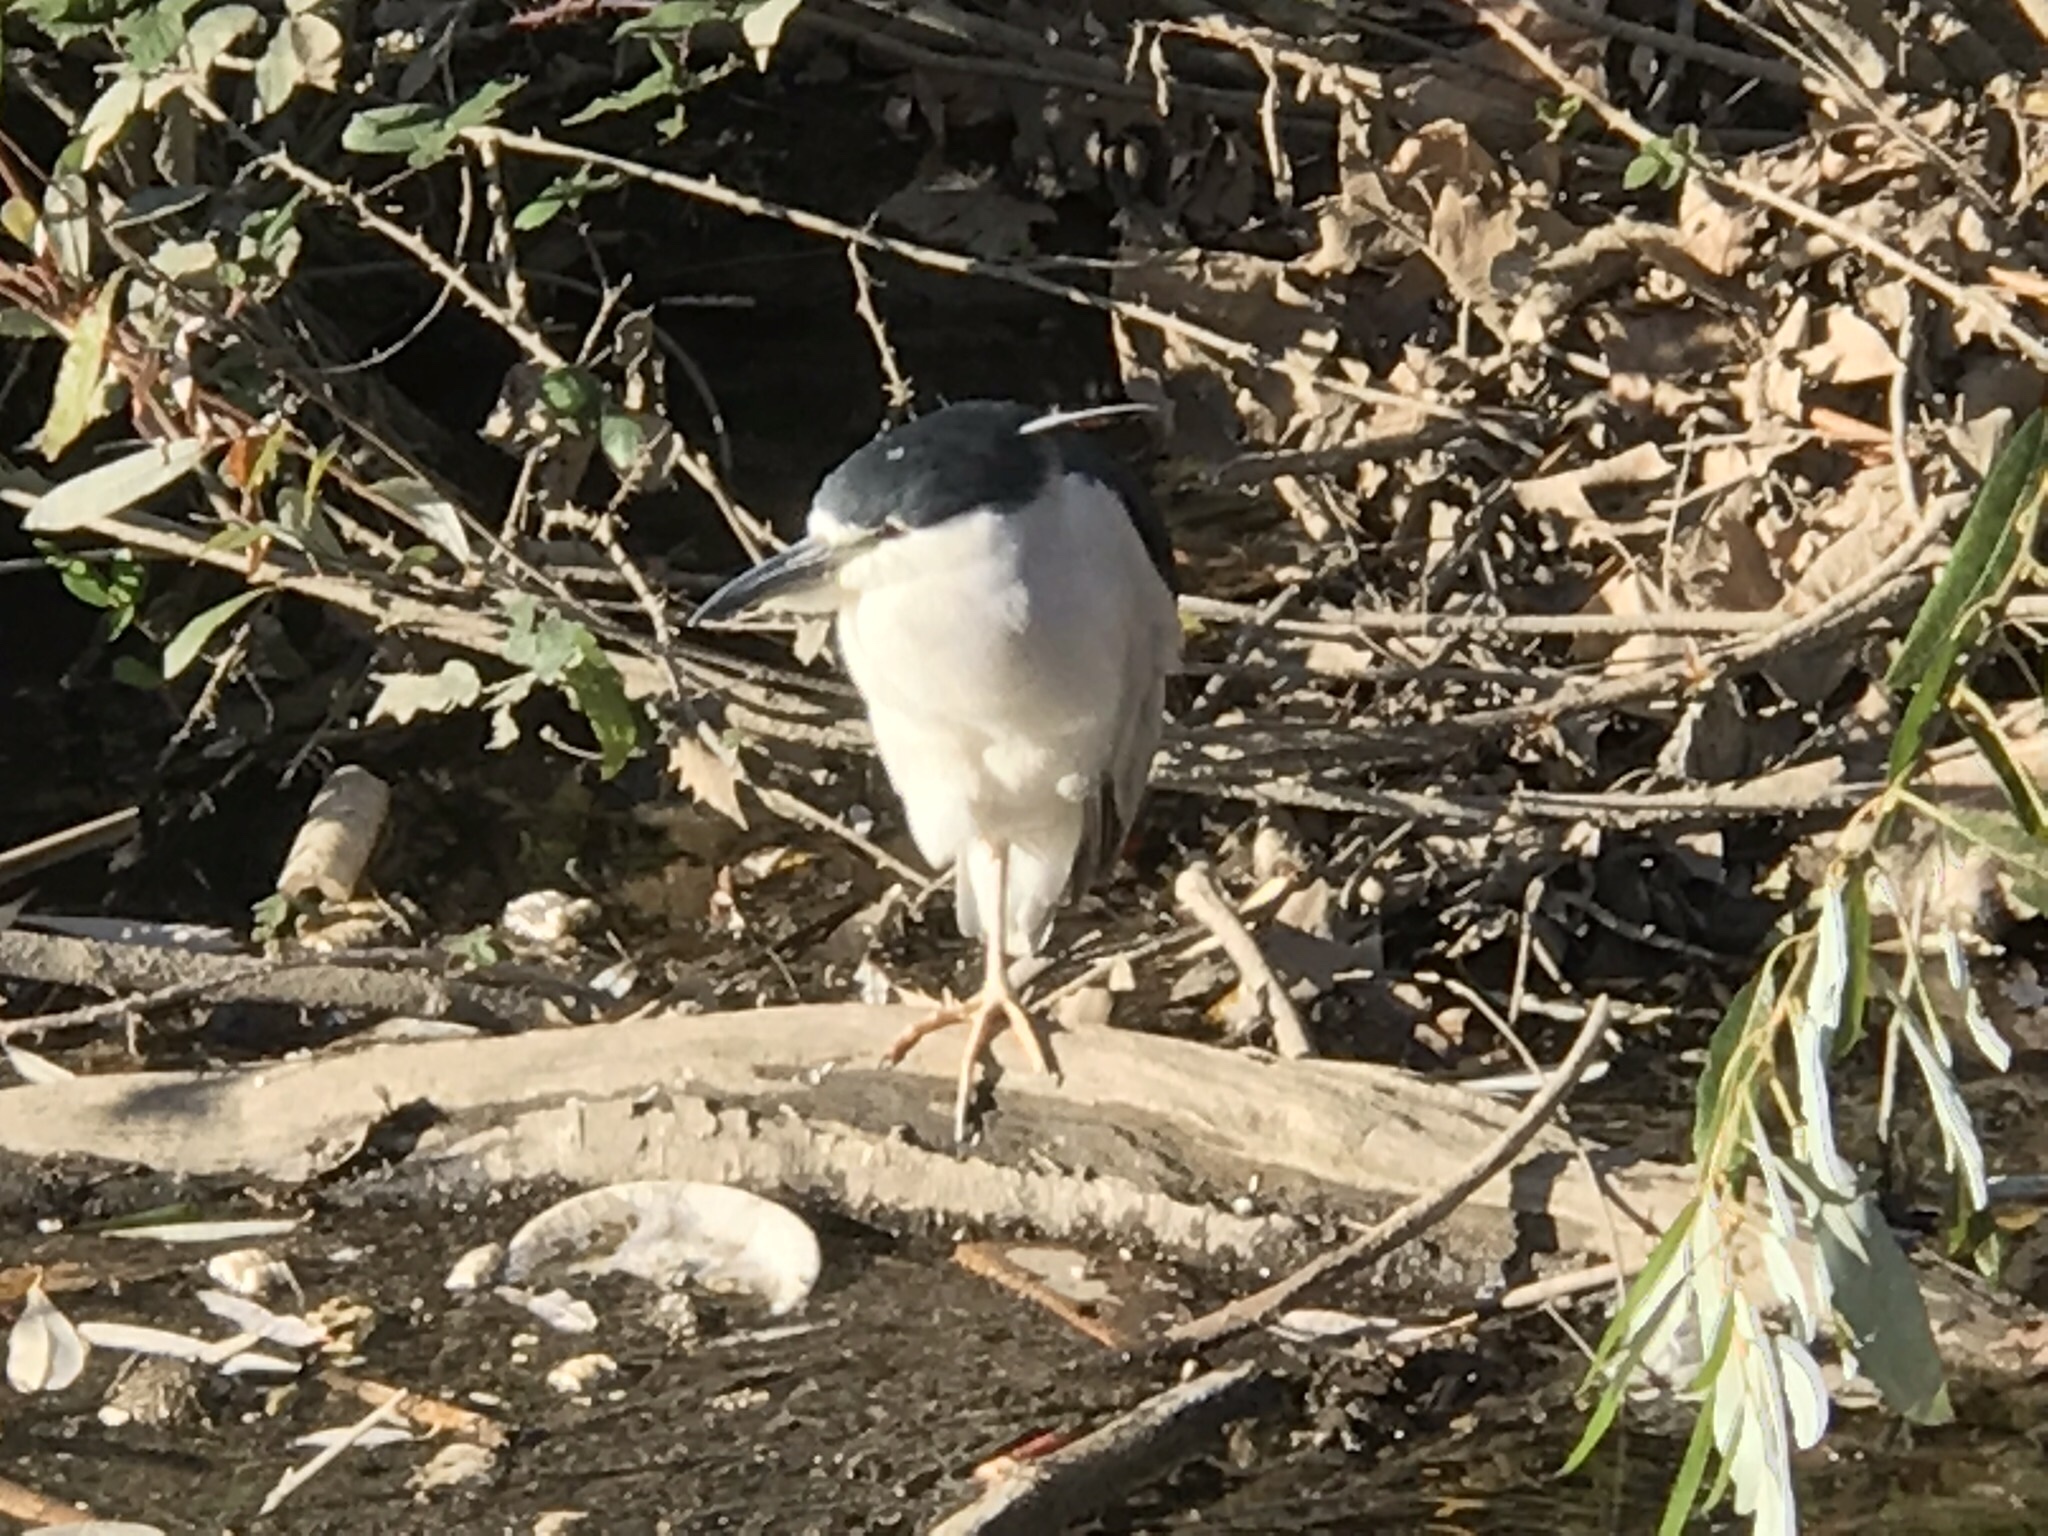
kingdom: Animalia
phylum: Chordata
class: Aves
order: Pelecaniformes
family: Ardeidae
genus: Nycticorax
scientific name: Nycticorax nycticorax
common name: Black-crowned night heron
